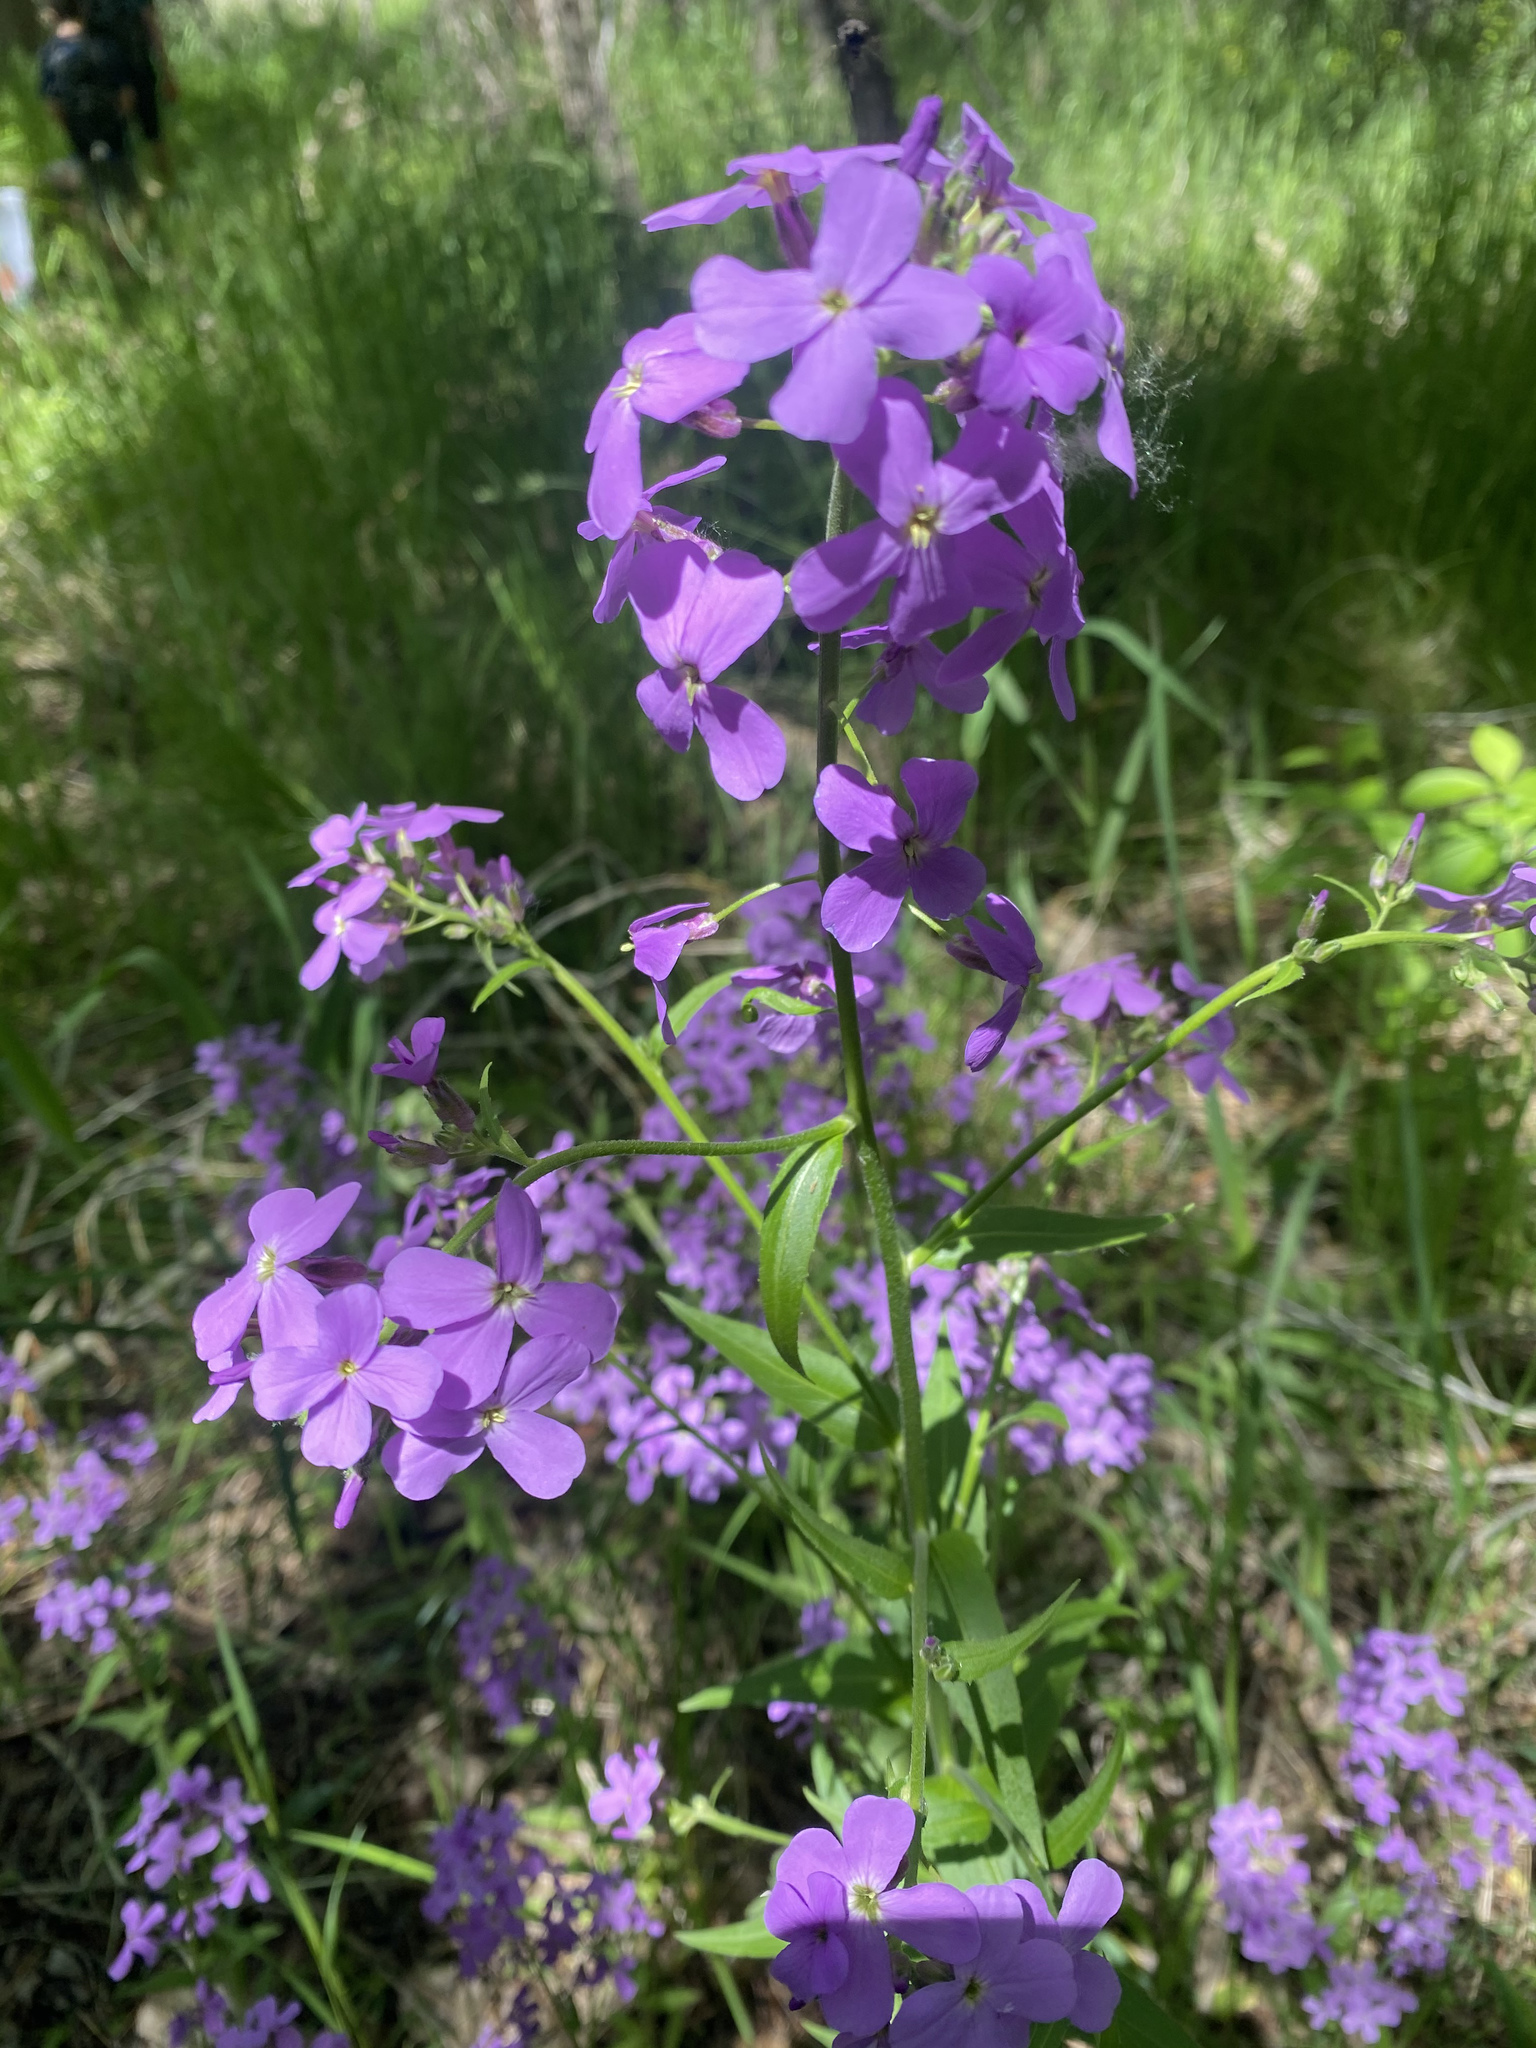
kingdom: Plantae
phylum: Tracheophyta
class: Magnoliopsida
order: Brassicales
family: Brassicaceae
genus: Hesperis
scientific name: Hesperis matronalis
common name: Dame's-violet
